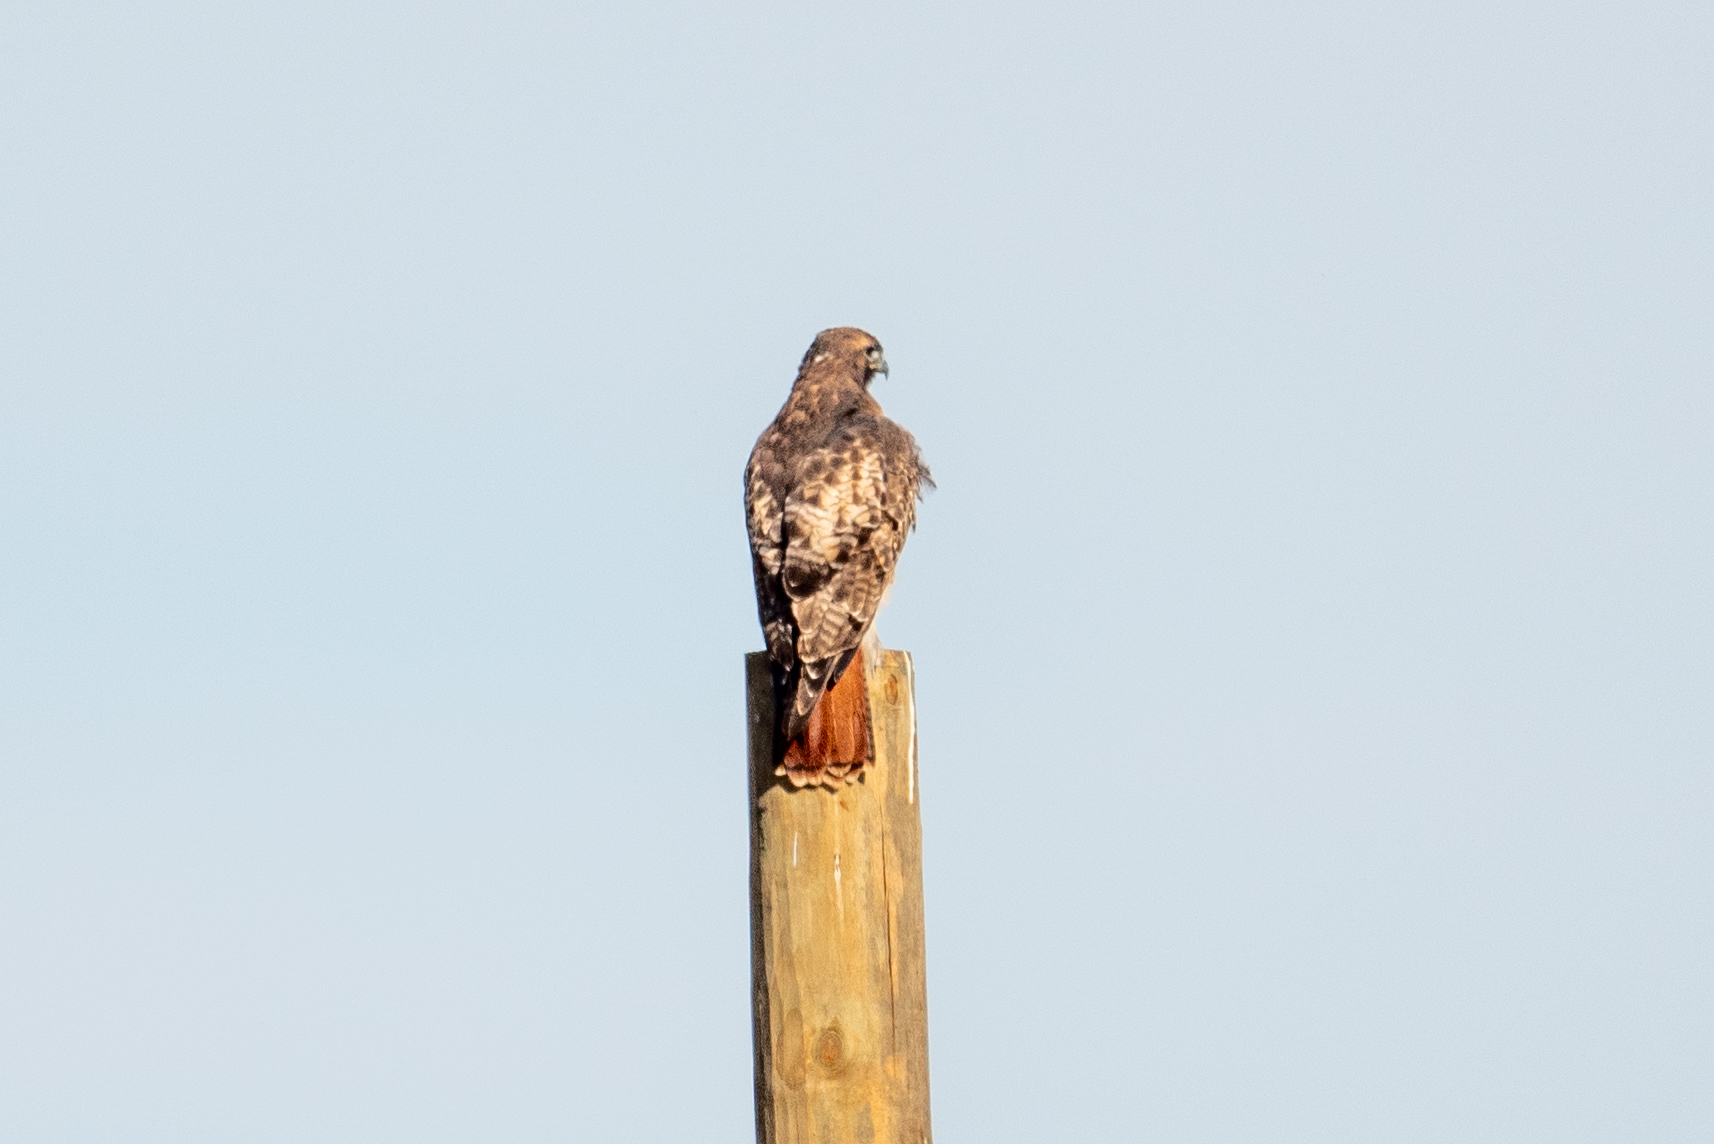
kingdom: Animalia
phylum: Chordata
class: Aves
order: Accipitriformes
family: Accipitridae
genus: Buteo
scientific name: Buteo jamaicensis
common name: Red-tailed hawk
